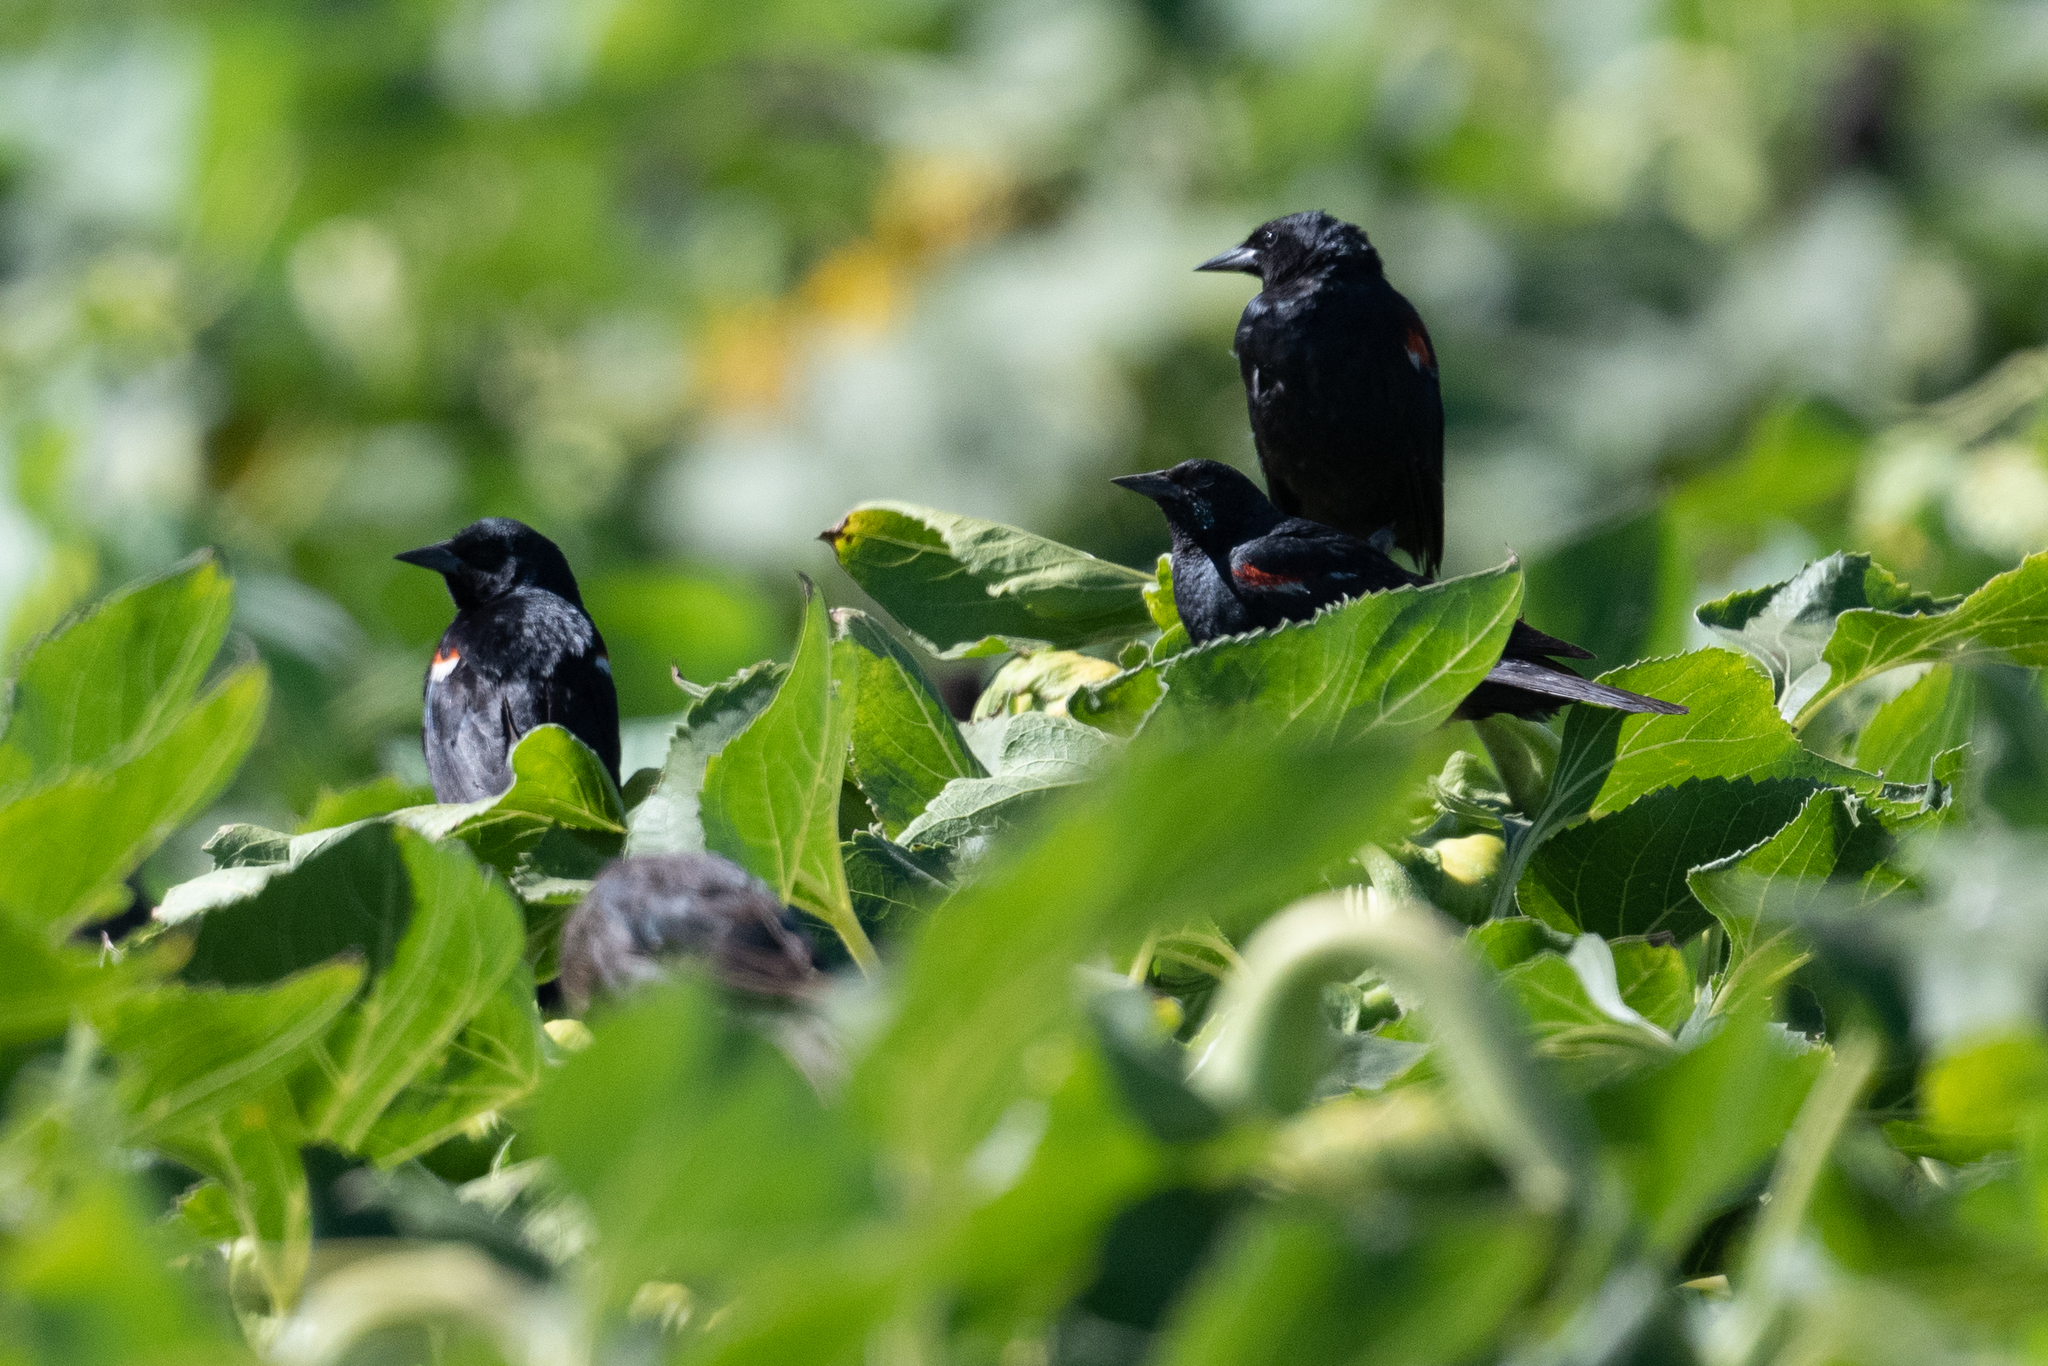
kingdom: Animalia
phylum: Chordata
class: Aves
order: Passeriformes
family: Icteridae
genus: Agelaius
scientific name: Agelaius tricolor
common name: Tricolored blackbird
